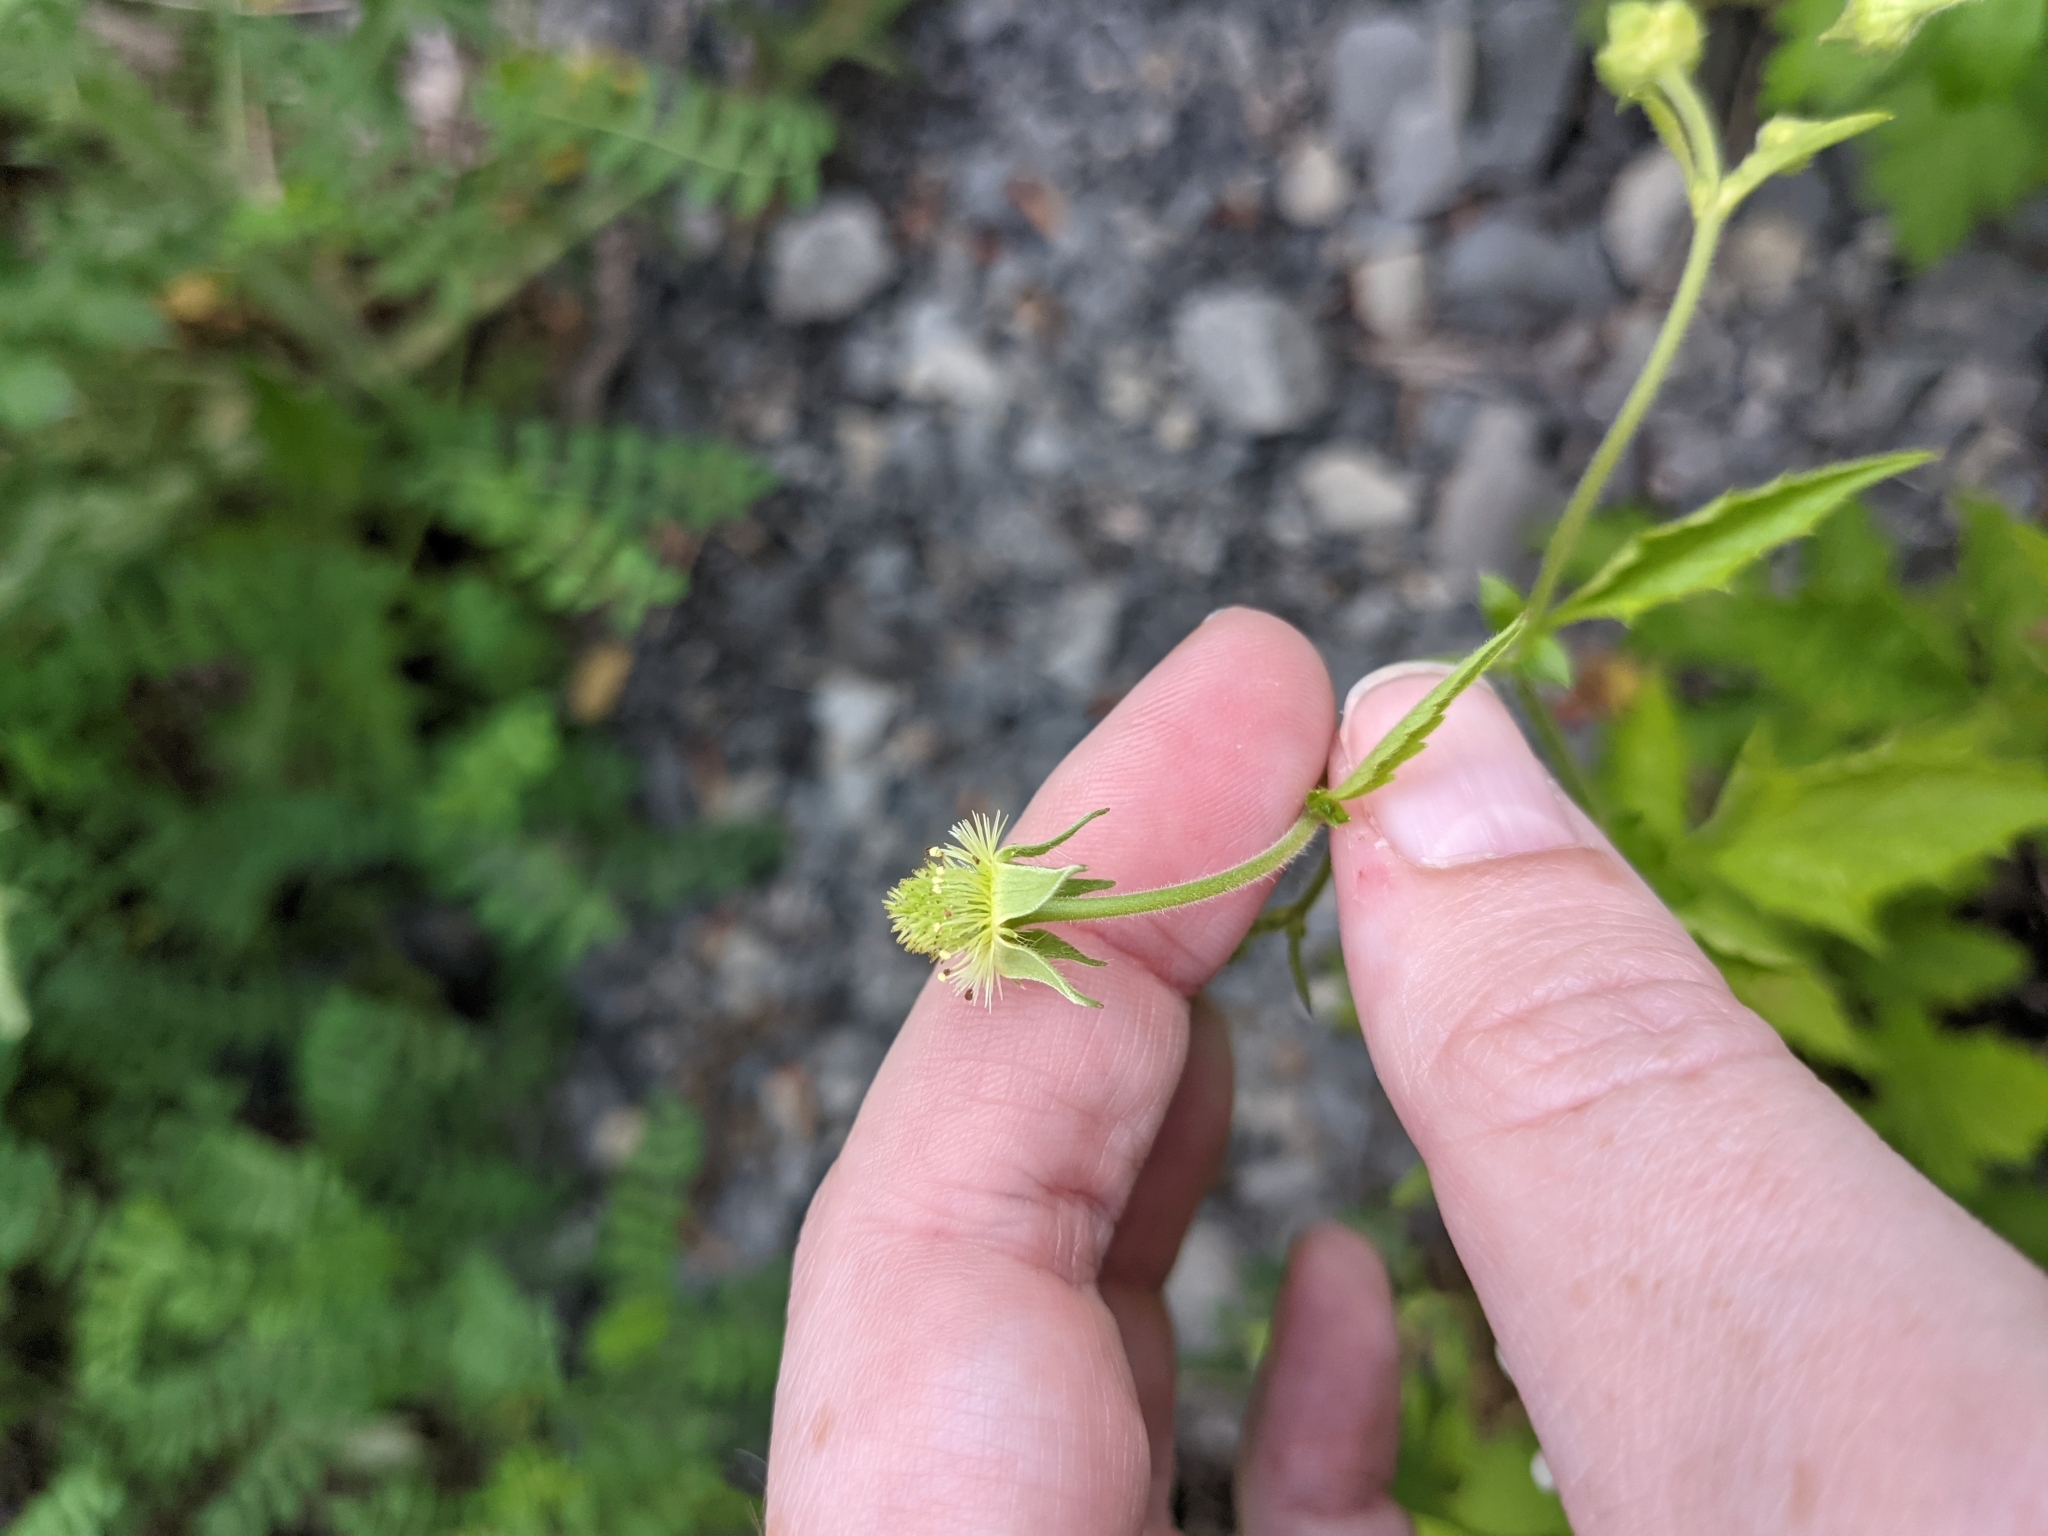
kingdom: Plantae
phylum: Tracheophyta
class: Magnoliopsida
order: Rosales
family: Rosaceae
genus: Geum
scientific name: Geum canadense
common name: White avens
